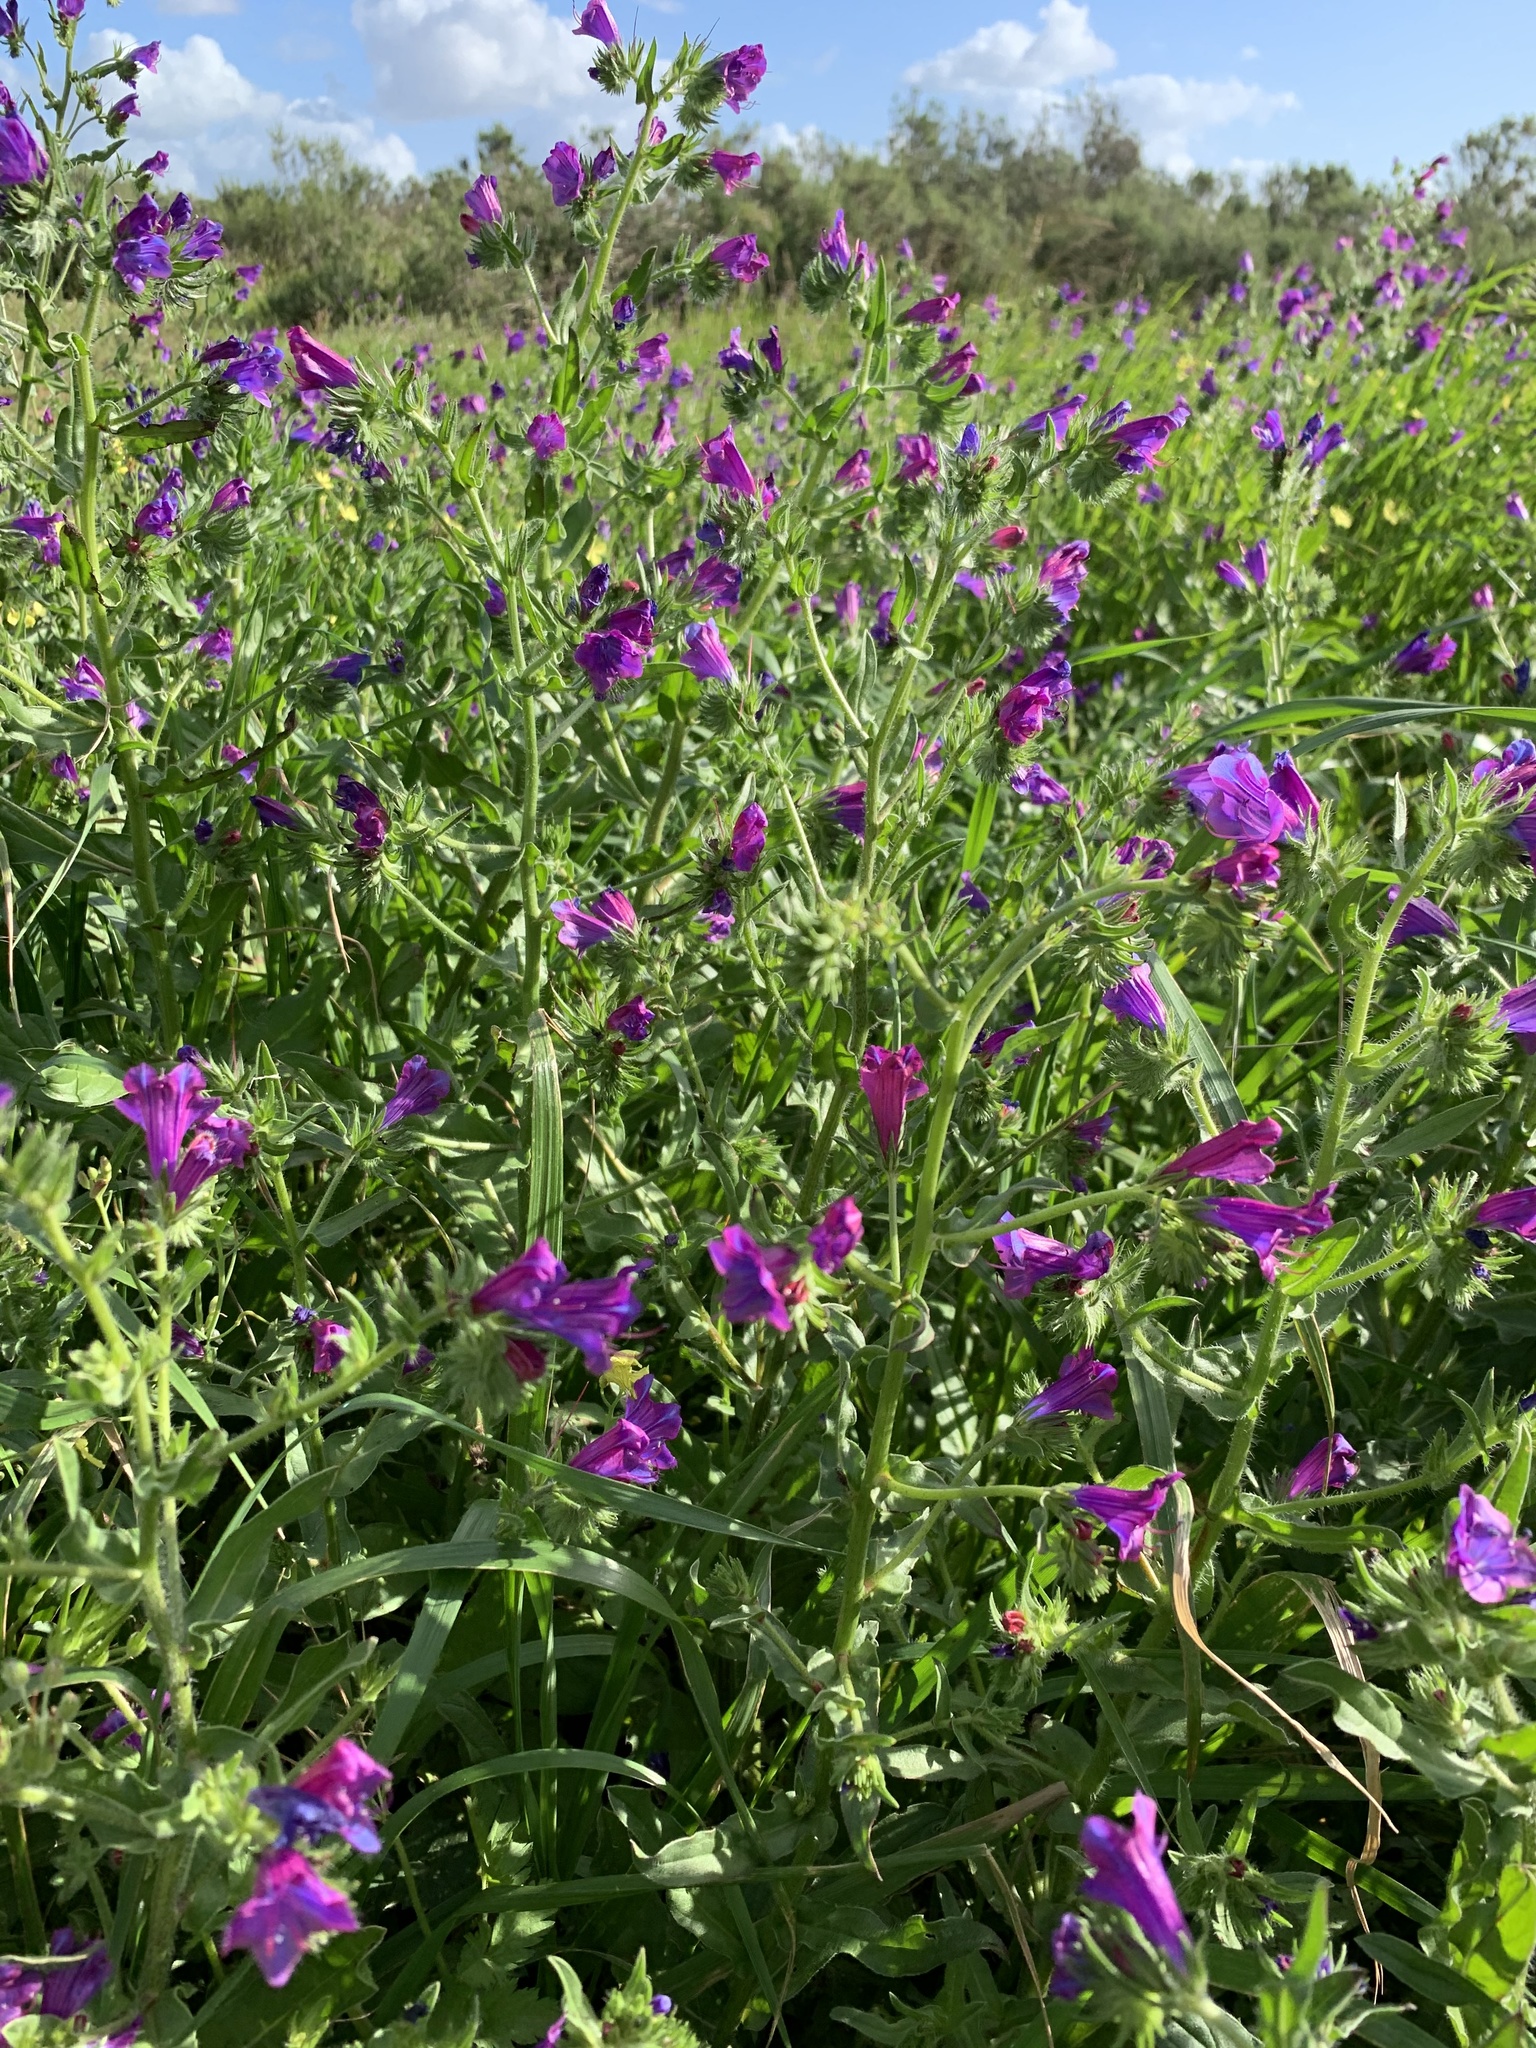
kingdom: Plantae
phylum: Tracheophyta
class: Magnoliopsida
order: Boraginales
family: Boraginaceae
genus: Echium
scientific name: Echium plantagineum
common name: Purple viper's-bugloss
